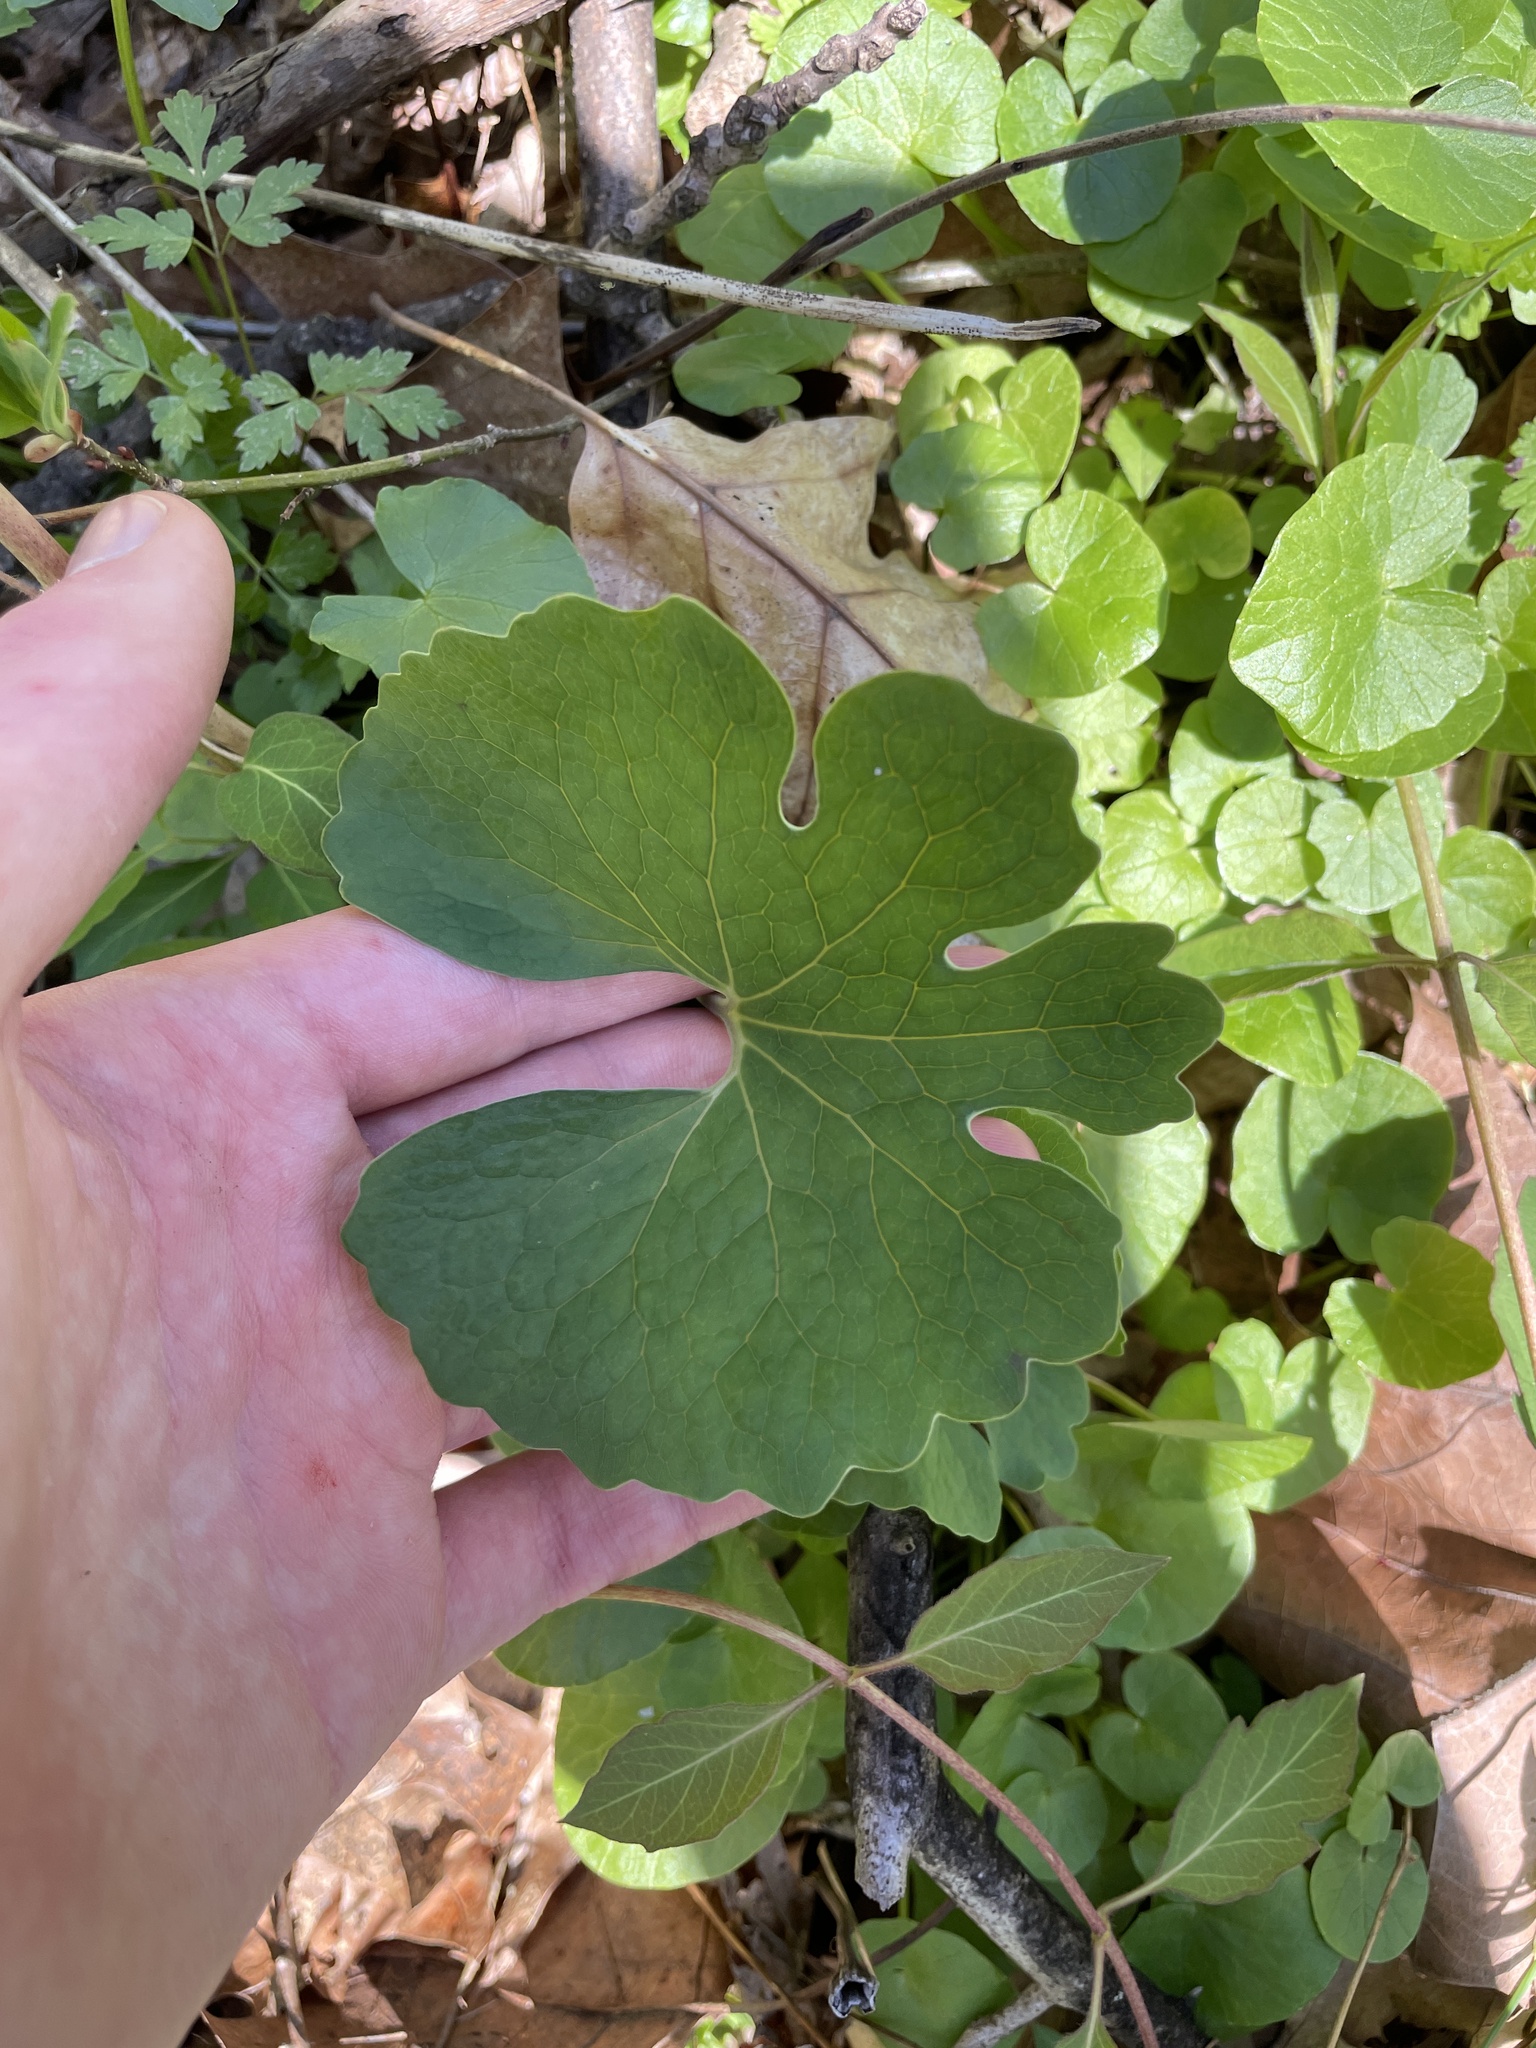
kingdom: Plantae
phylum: Tracheophyta
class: Magnoliopsida
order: Ranunculales
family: Papaveraceae
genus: Sanguinaria
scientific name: Sanguinaria canadensis
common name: Bloodroot
